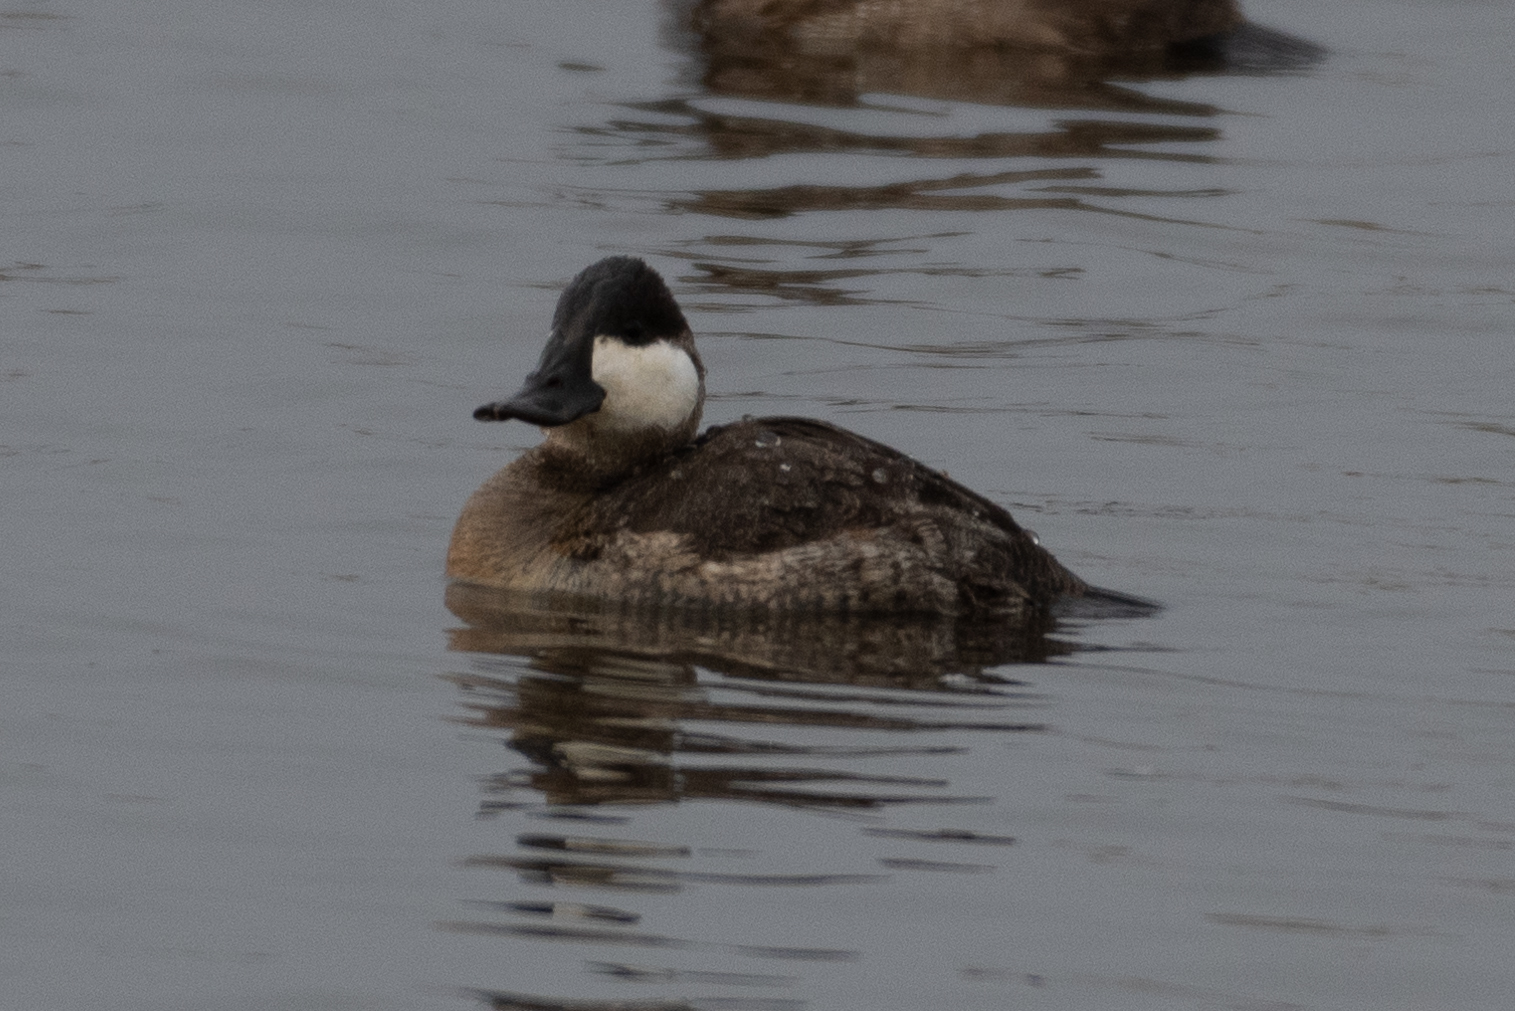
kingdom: Animalia
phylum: Chordata
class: Aves
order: Anseriformes
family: Anatidae
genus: Oxyura
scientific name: Oxyura jamaicensis
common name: Ruddy duck
